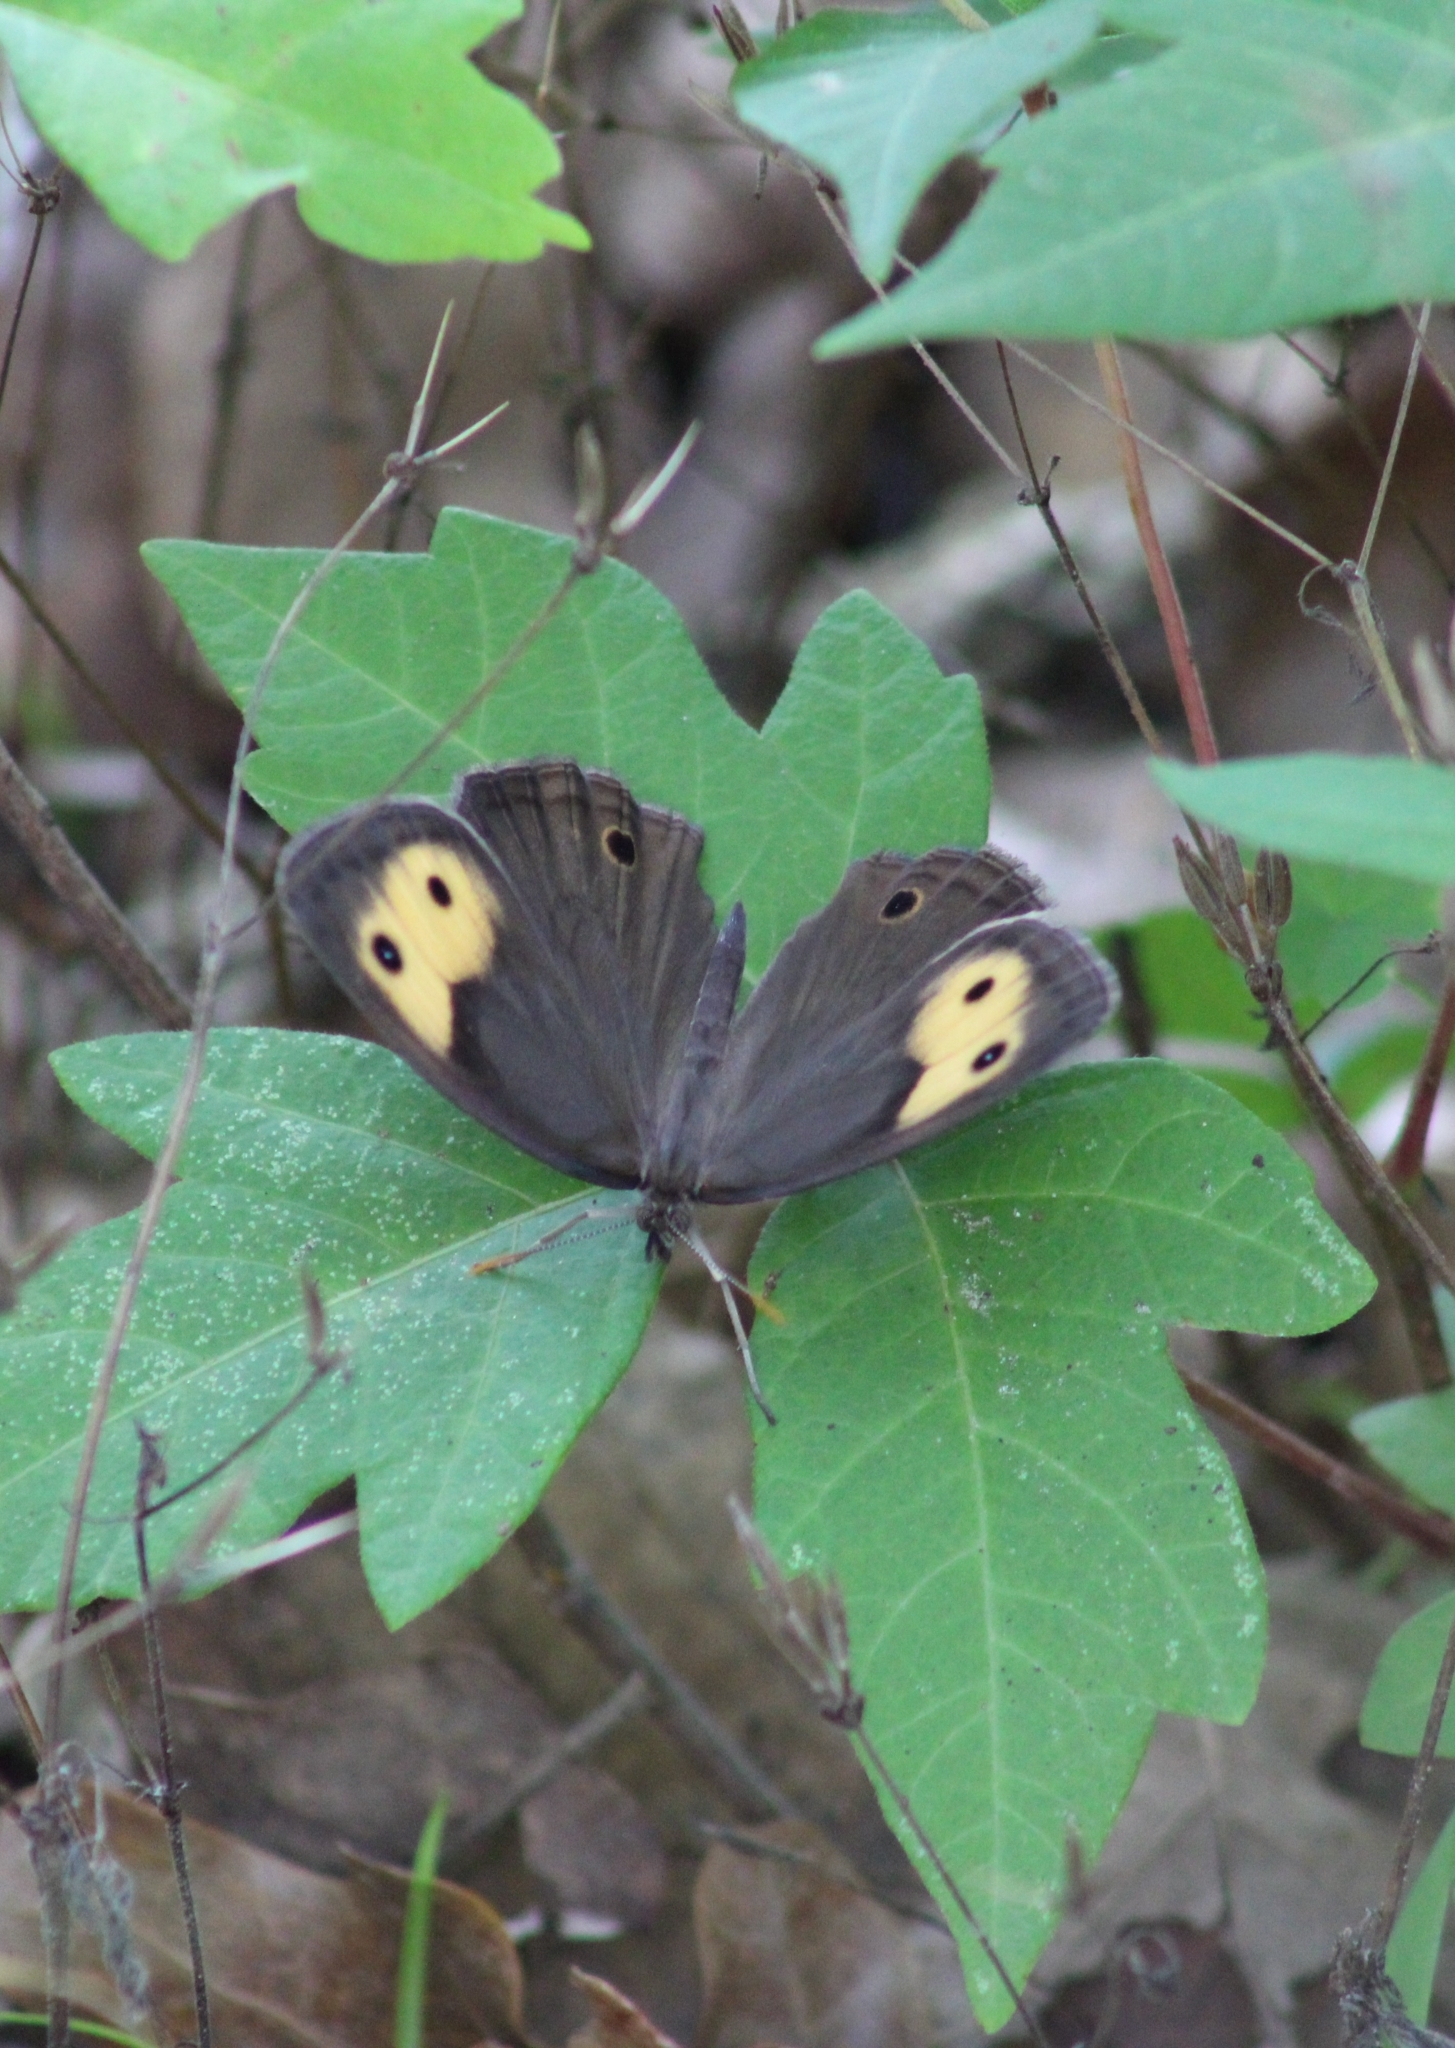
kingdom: Animalia
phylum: Arthropoda
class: Insecta
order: Lepidoptera
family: Nymphalidae
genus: Cercyonis
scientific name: Cercyonis pegala
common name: Common wood-nymph
